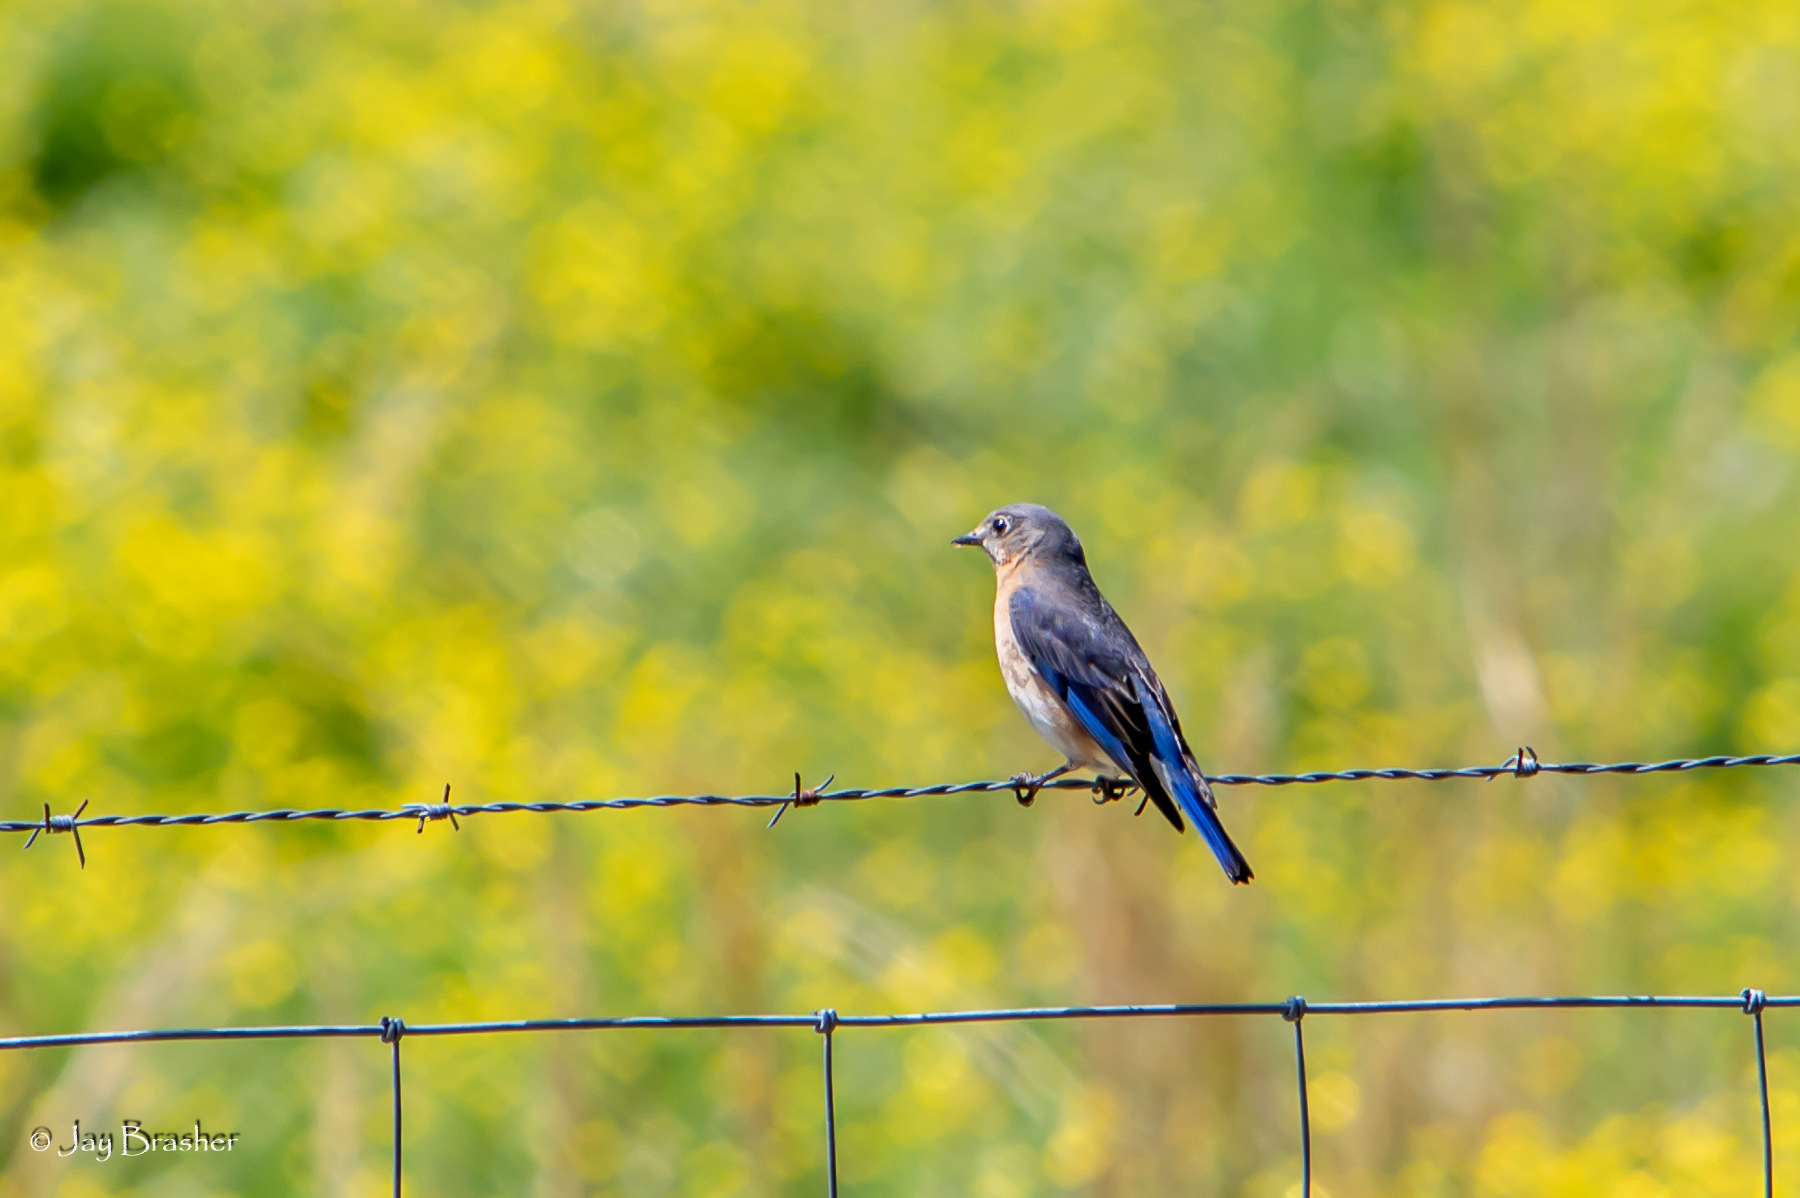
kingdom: Animalia
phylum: Chordata
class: Aves
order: Passeriformes
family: Turdidae
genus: Sialia
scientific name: Sialia sialis
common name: Eastern bluebird
